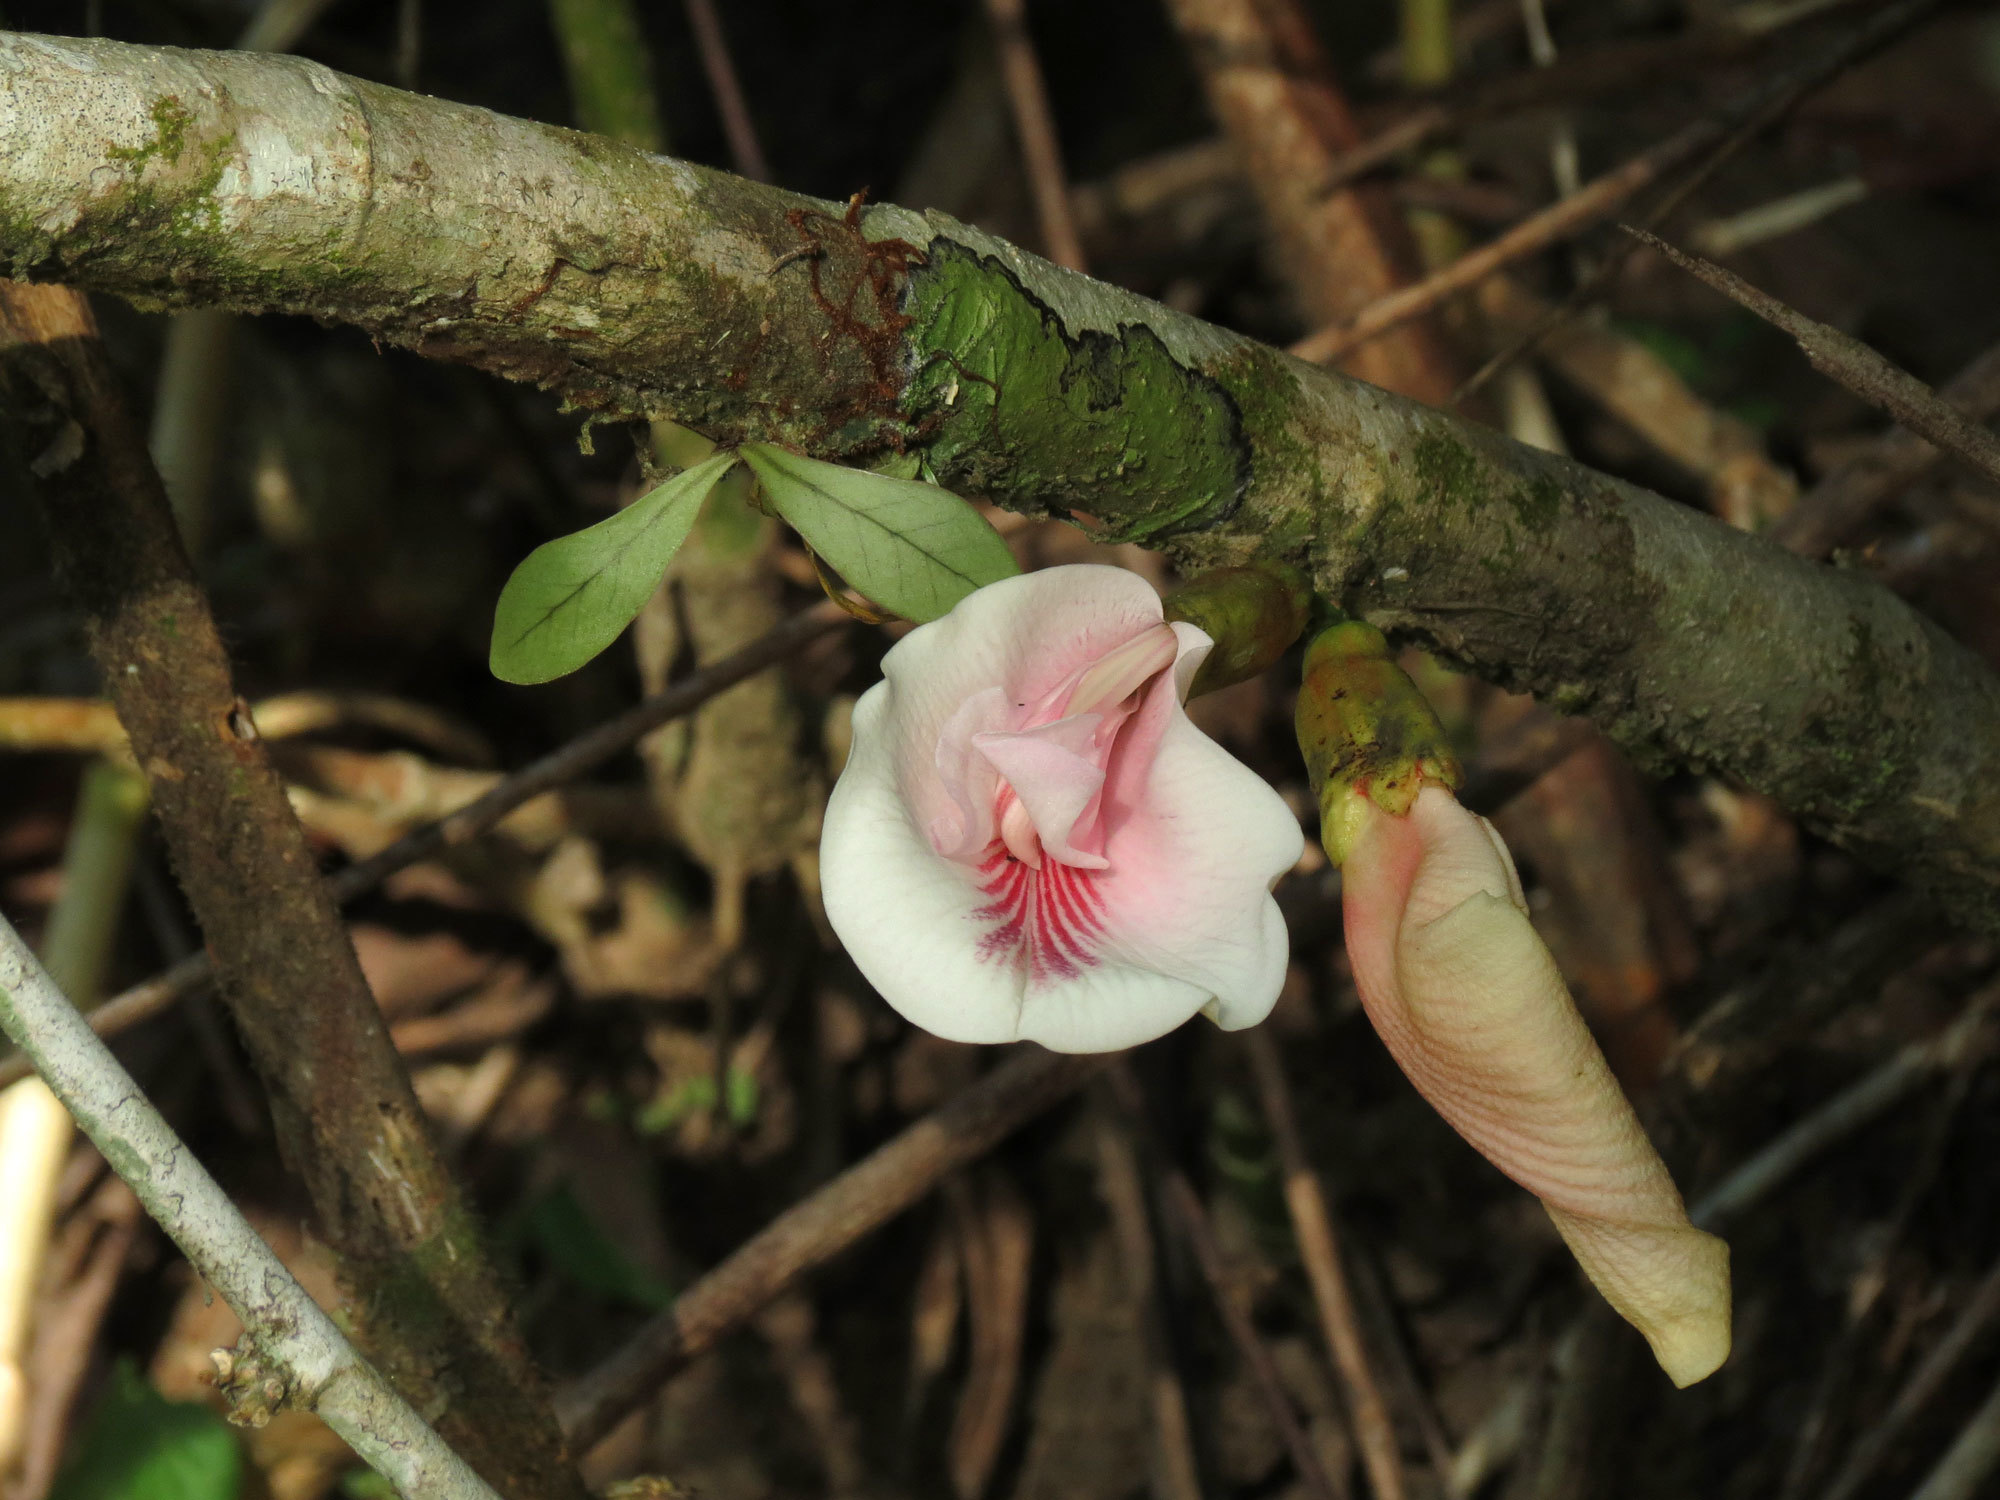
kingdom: Plantae
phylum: Tracheophyta
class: Magnoliopsida
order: Fabales
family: Fabaceae
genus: Clitoria
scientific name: Clitoria javitensis
